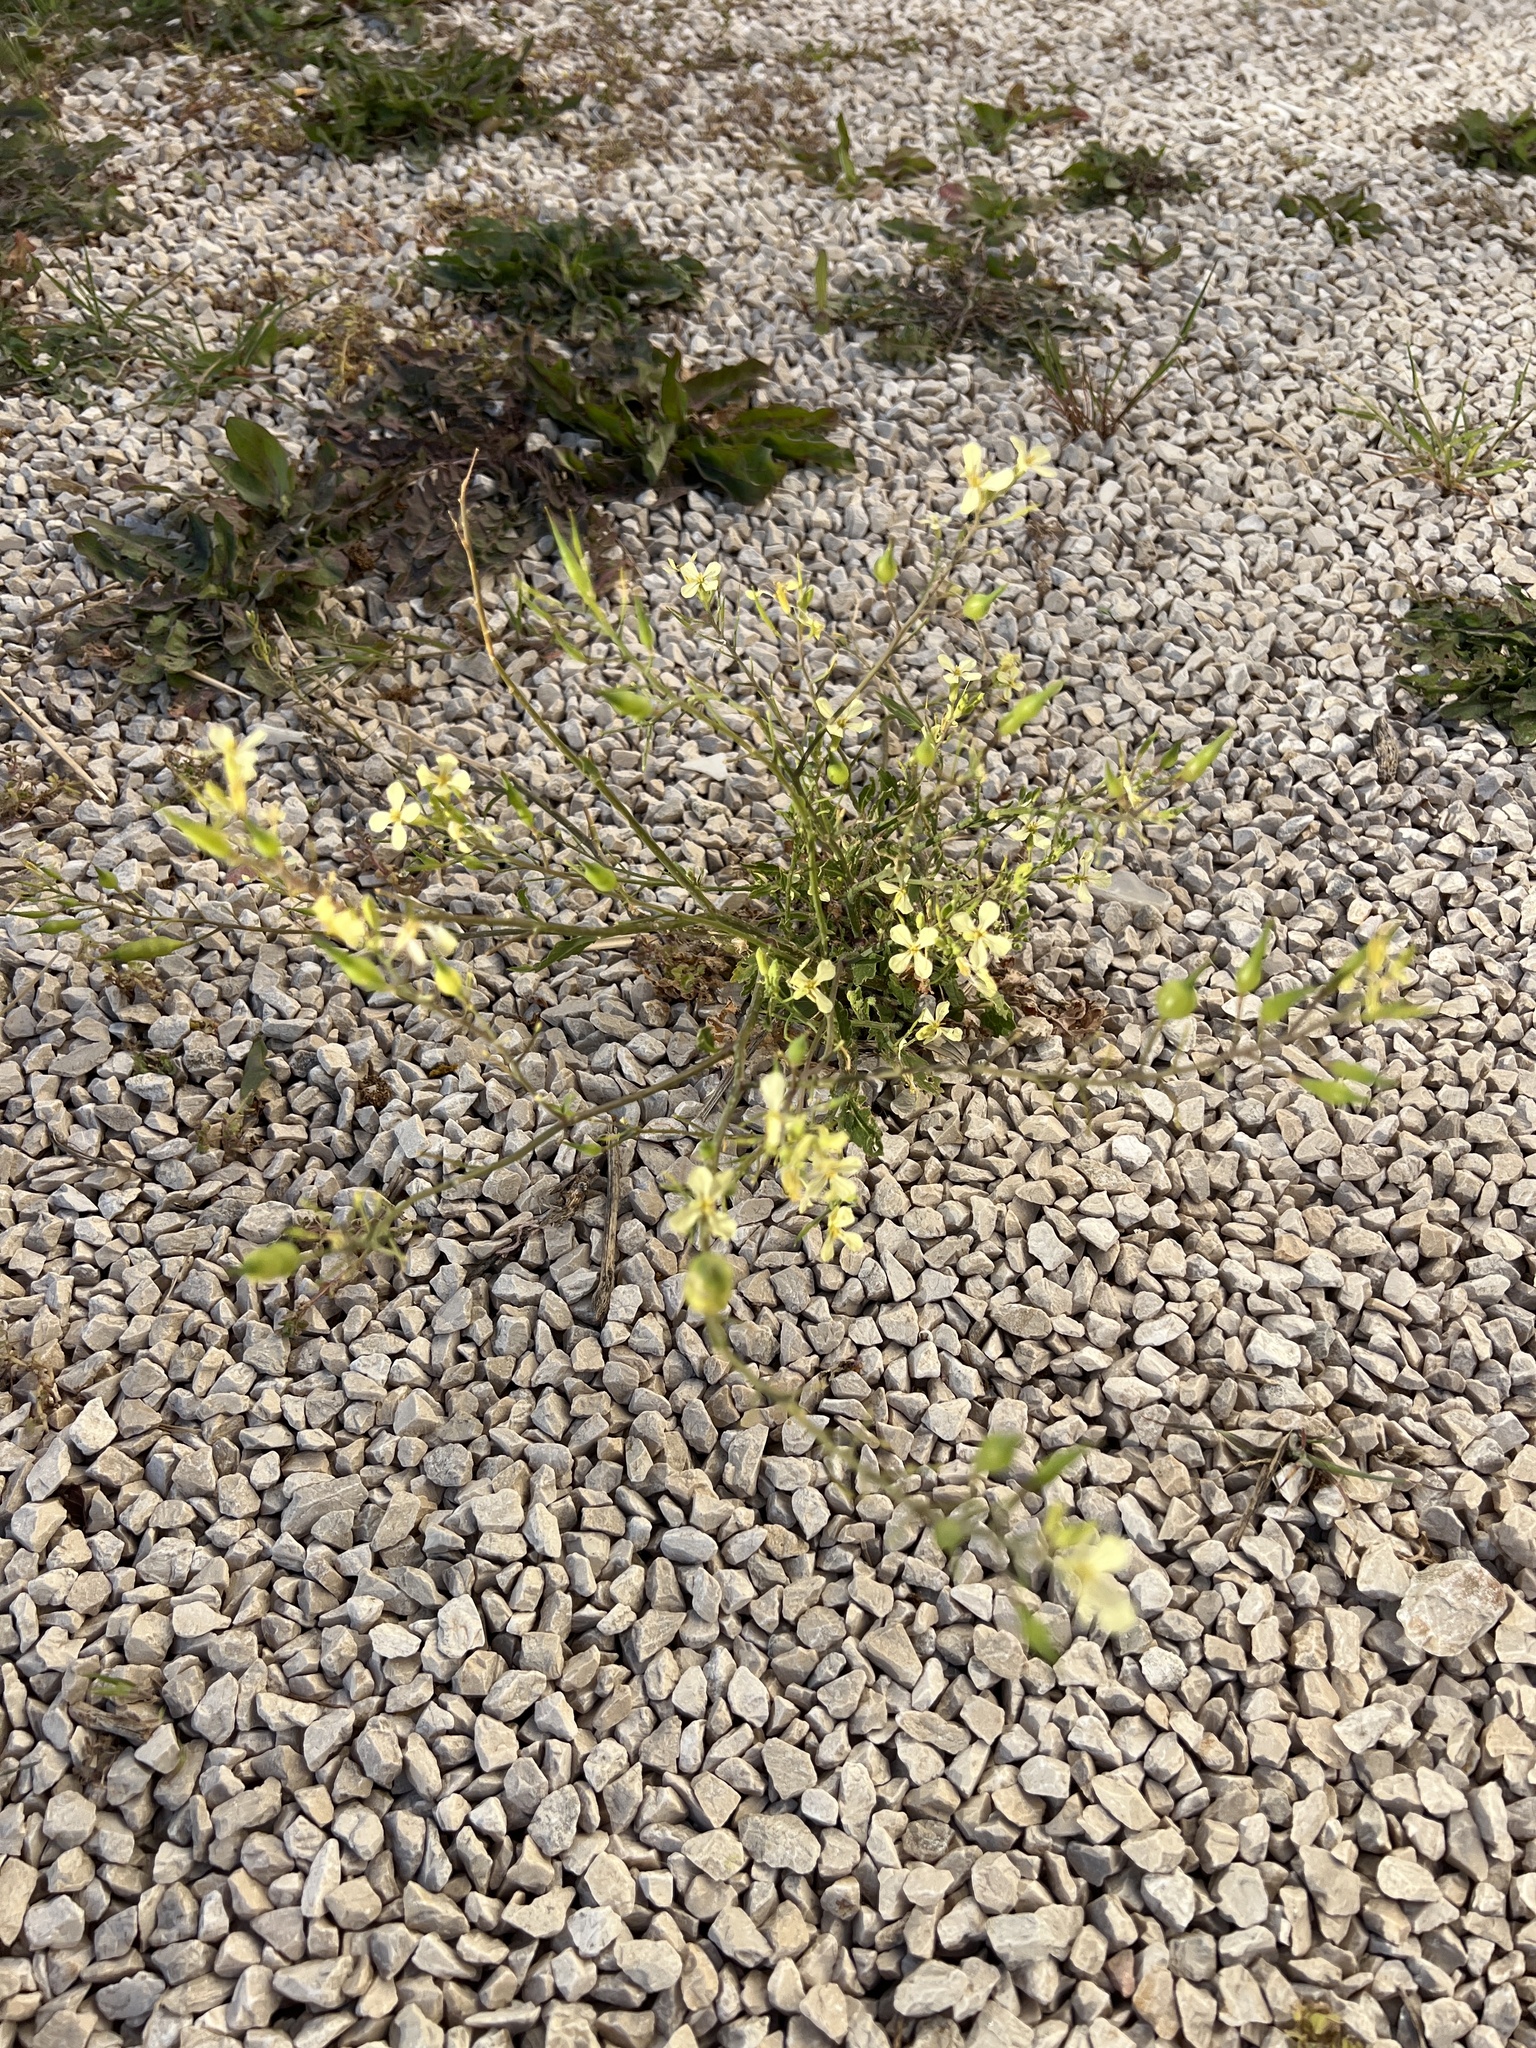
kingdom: Plantae
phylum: Tracheophyta
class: Magnoliopsida
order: Brassicales
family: Brassicaceae
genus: Raphanus
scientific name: Raphanus raphanistrum
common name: Wild radish
